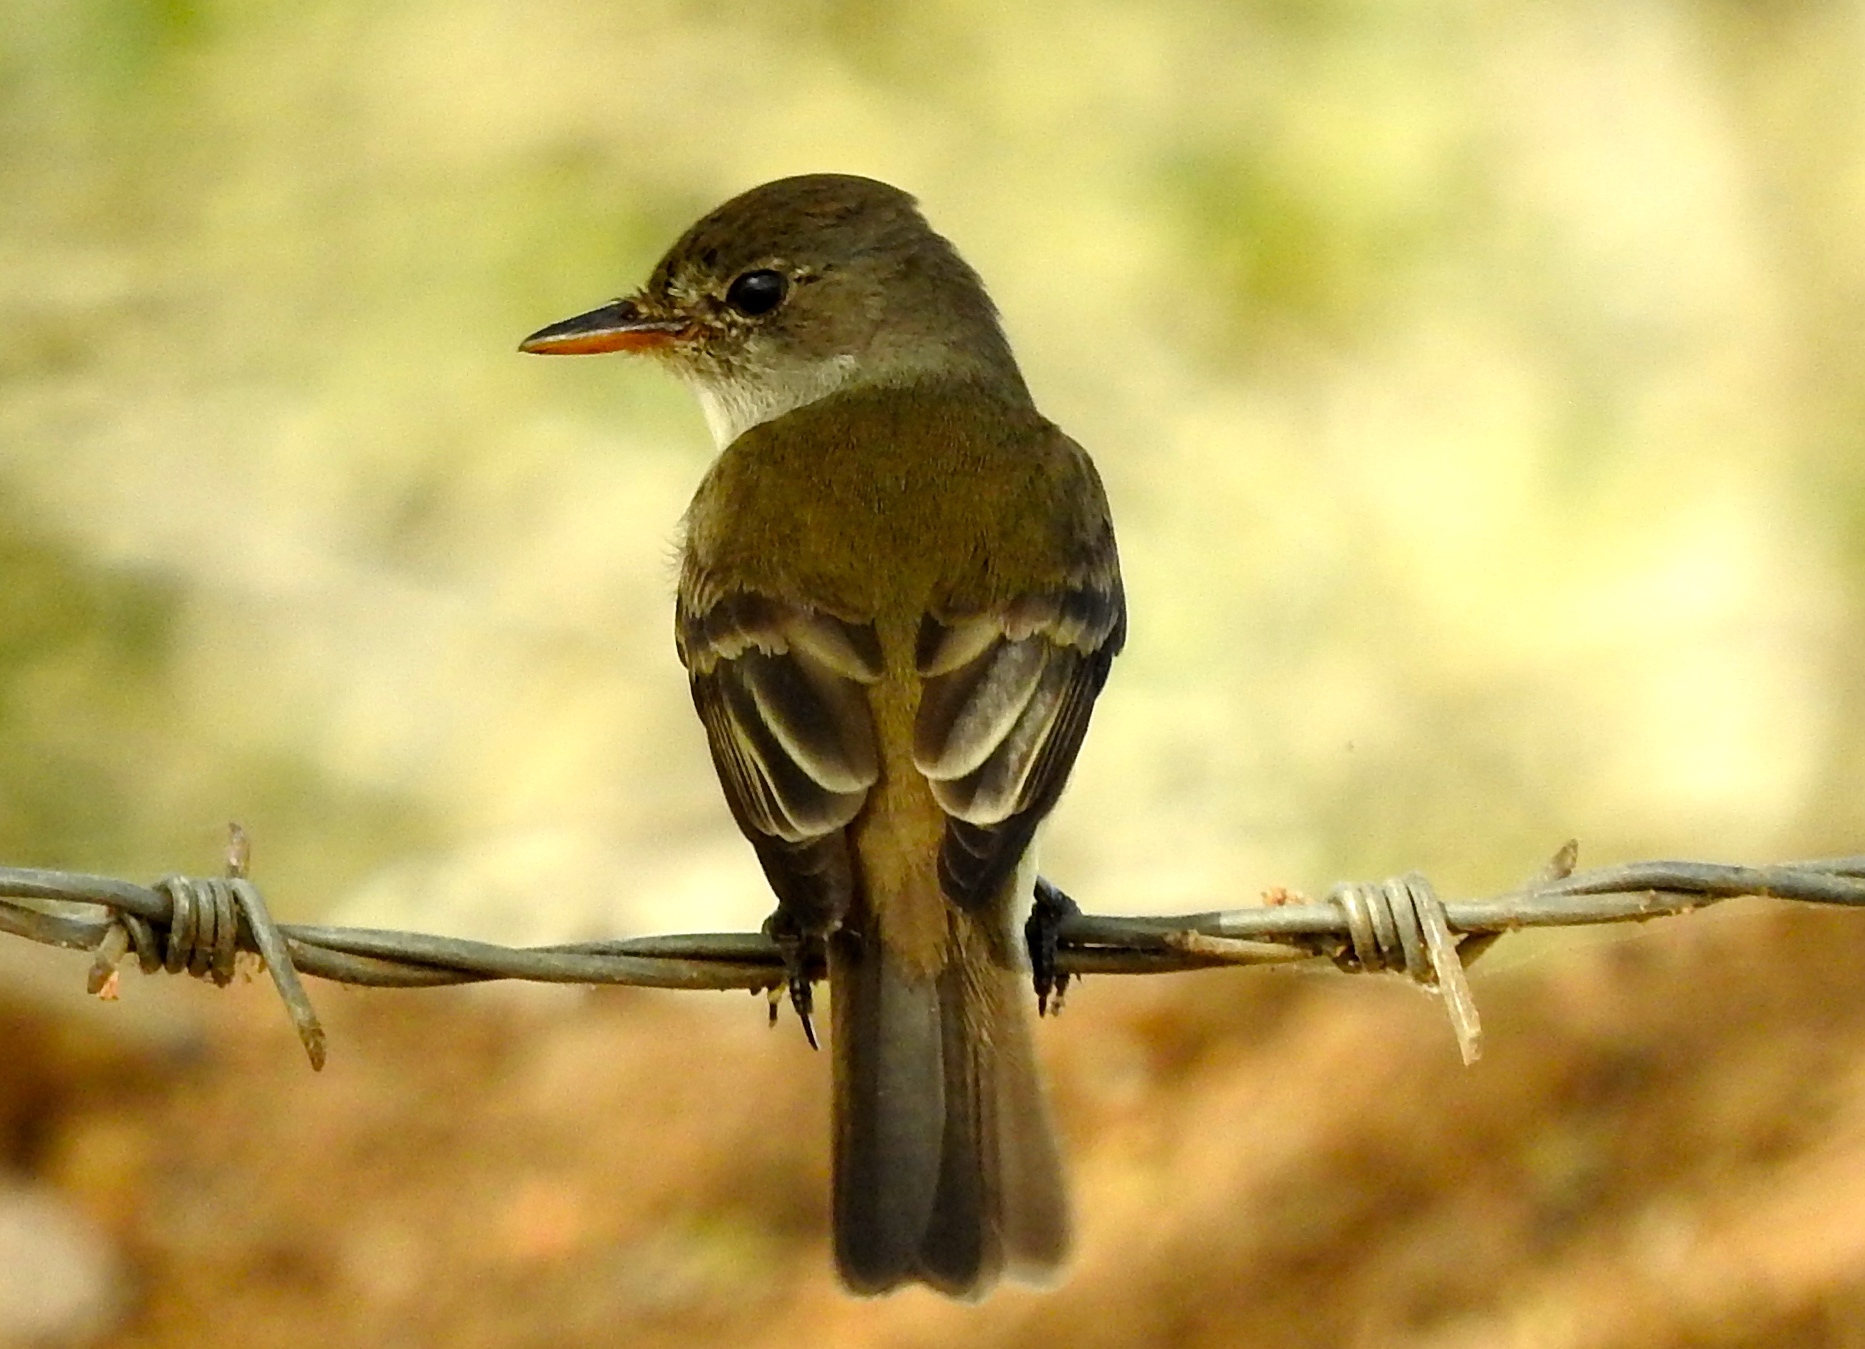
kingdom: Animalia
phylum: Chordata
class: Aves
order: Passeriformes
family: Tyrannidae
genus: Empidonax
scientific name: Empidonax traillii
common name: Willow flycatcher
